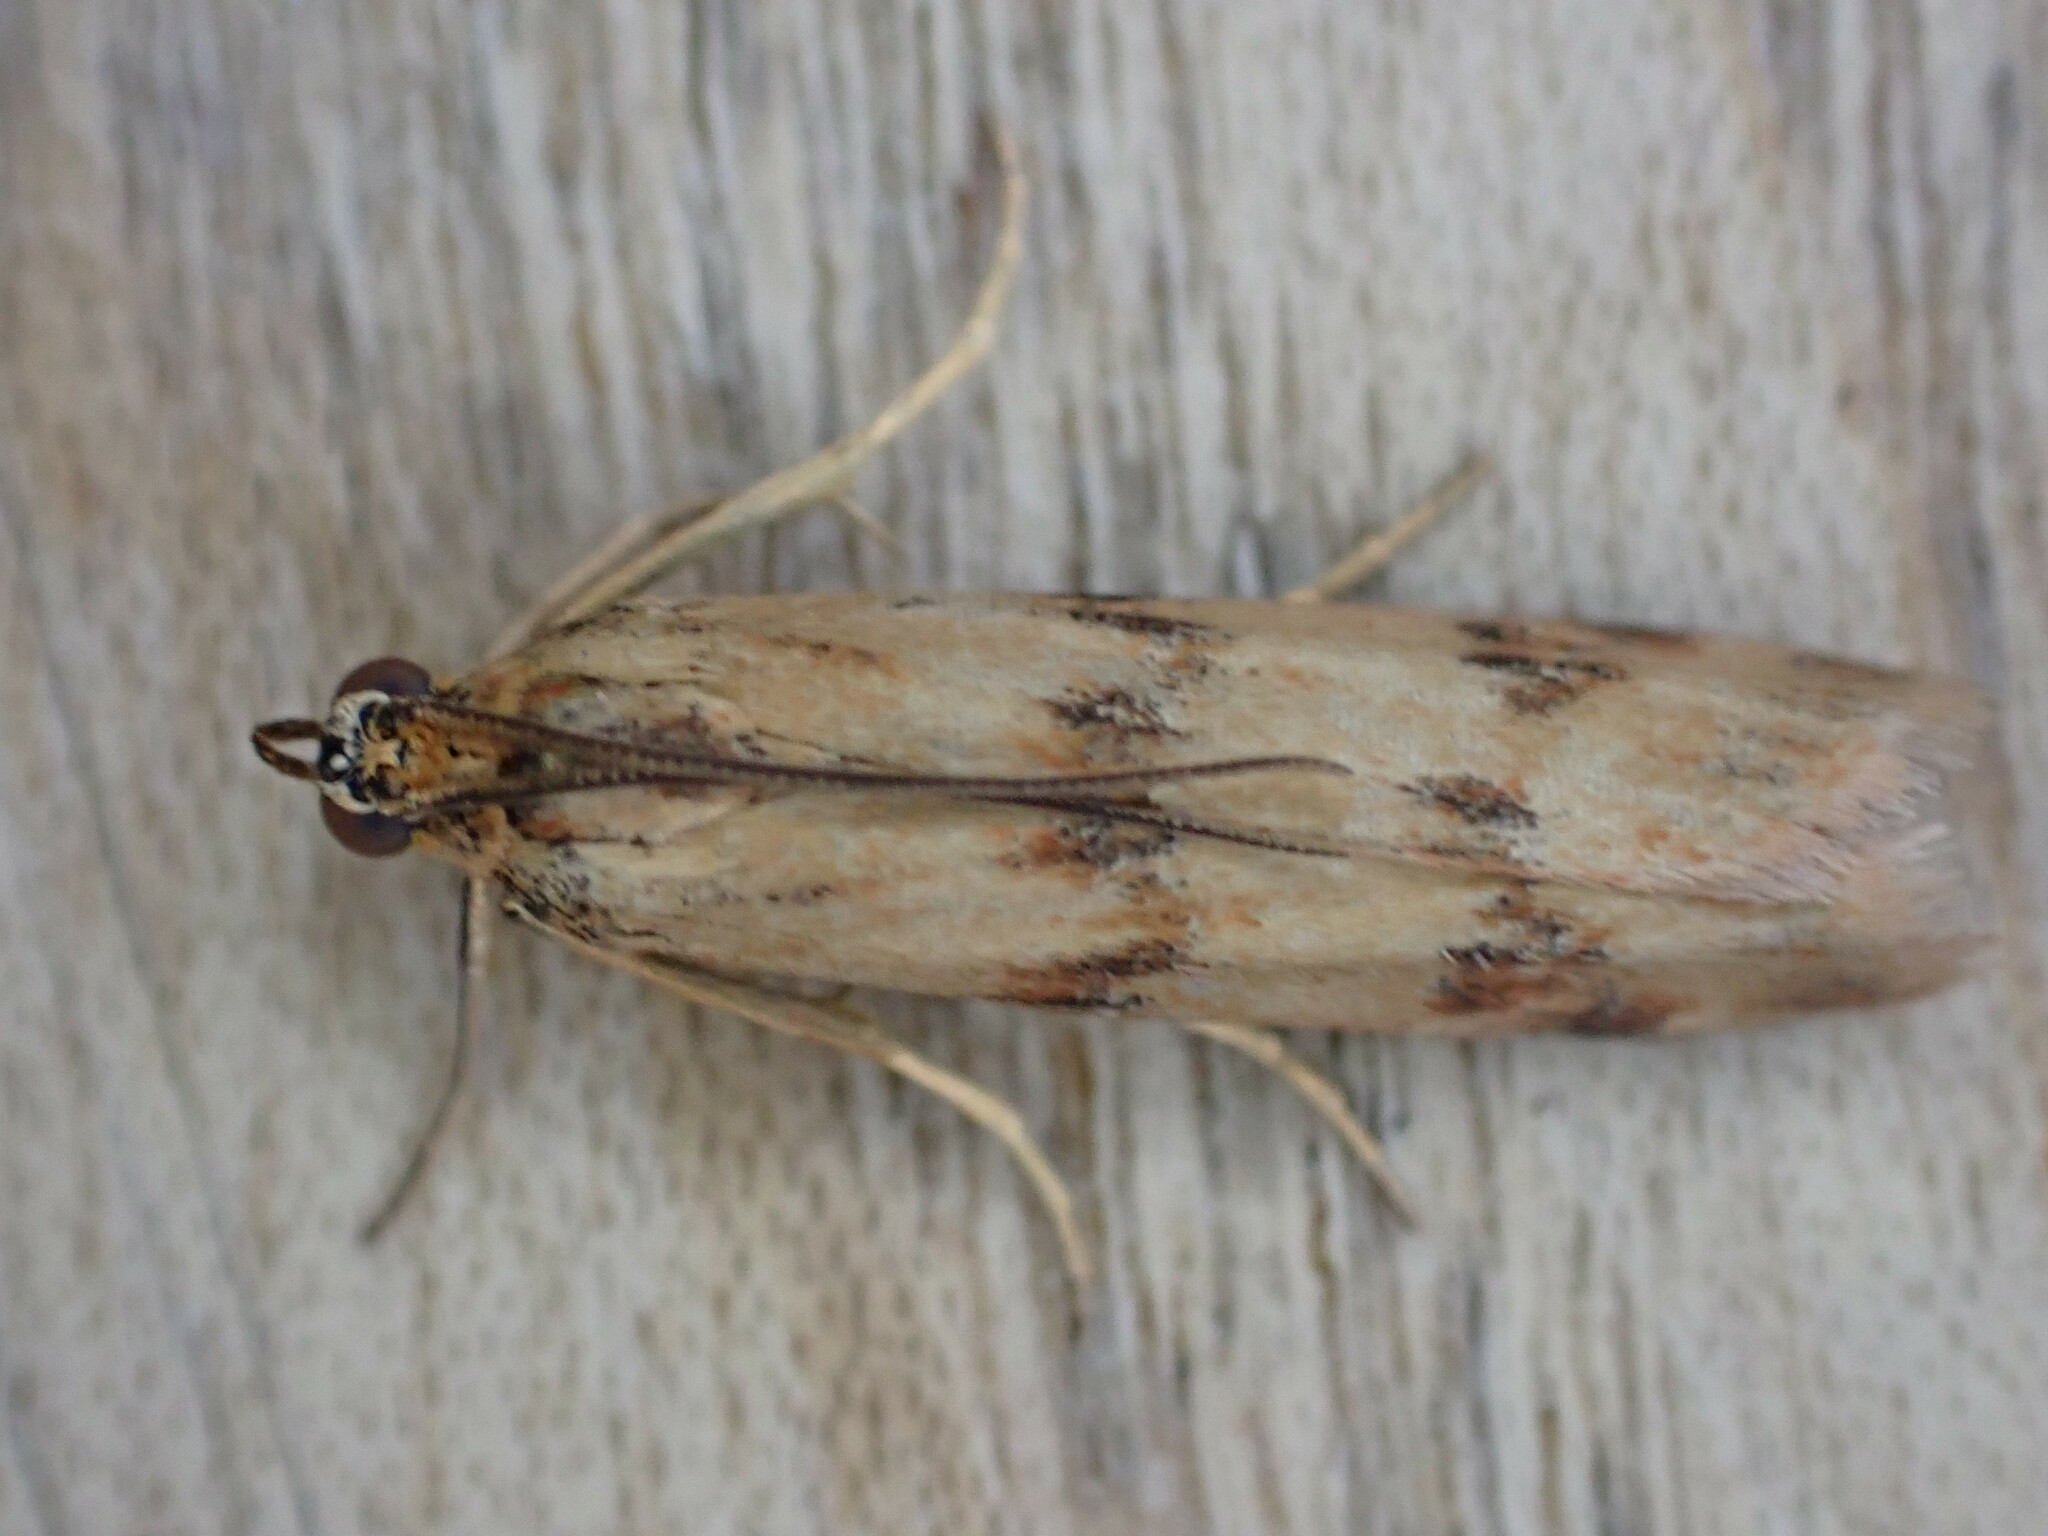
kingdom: Animalia
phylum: Arthropoda
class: Insecta
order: Lepidoptera
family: Pyralidae
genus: Homoeosoma
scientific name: Homoeosoma sinuella
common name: Twin-barred knot-horn
